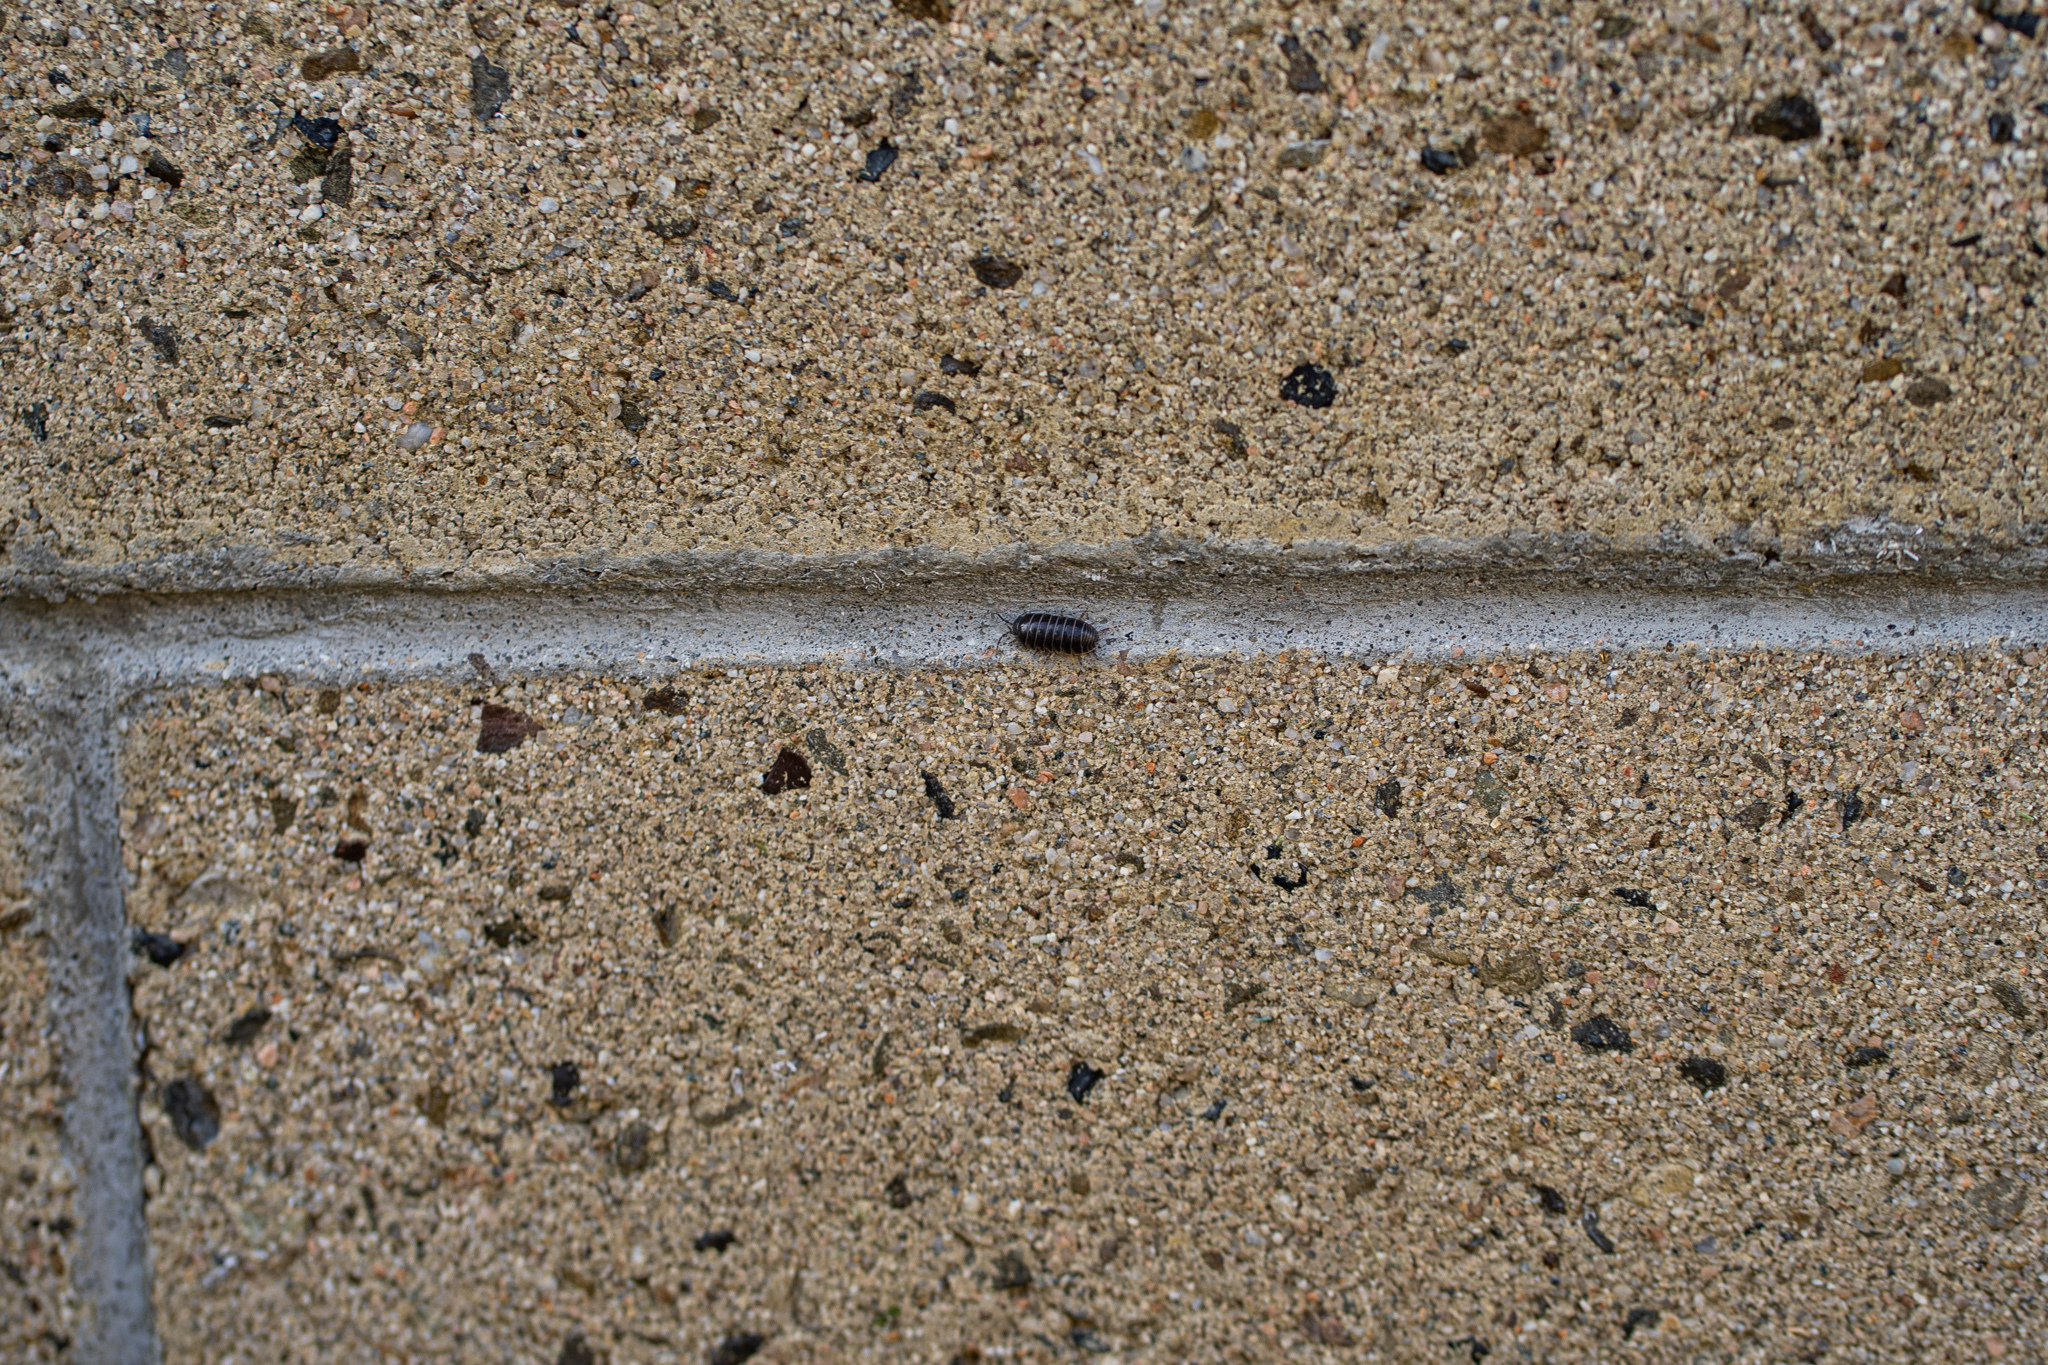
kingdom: Animalia
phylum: Arthropoda
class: Malacostraca
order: Isopoda
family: Armadillidiidae
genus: Armadillidium
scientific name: Armadillidium vulgare
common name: Common pill woodlouse
